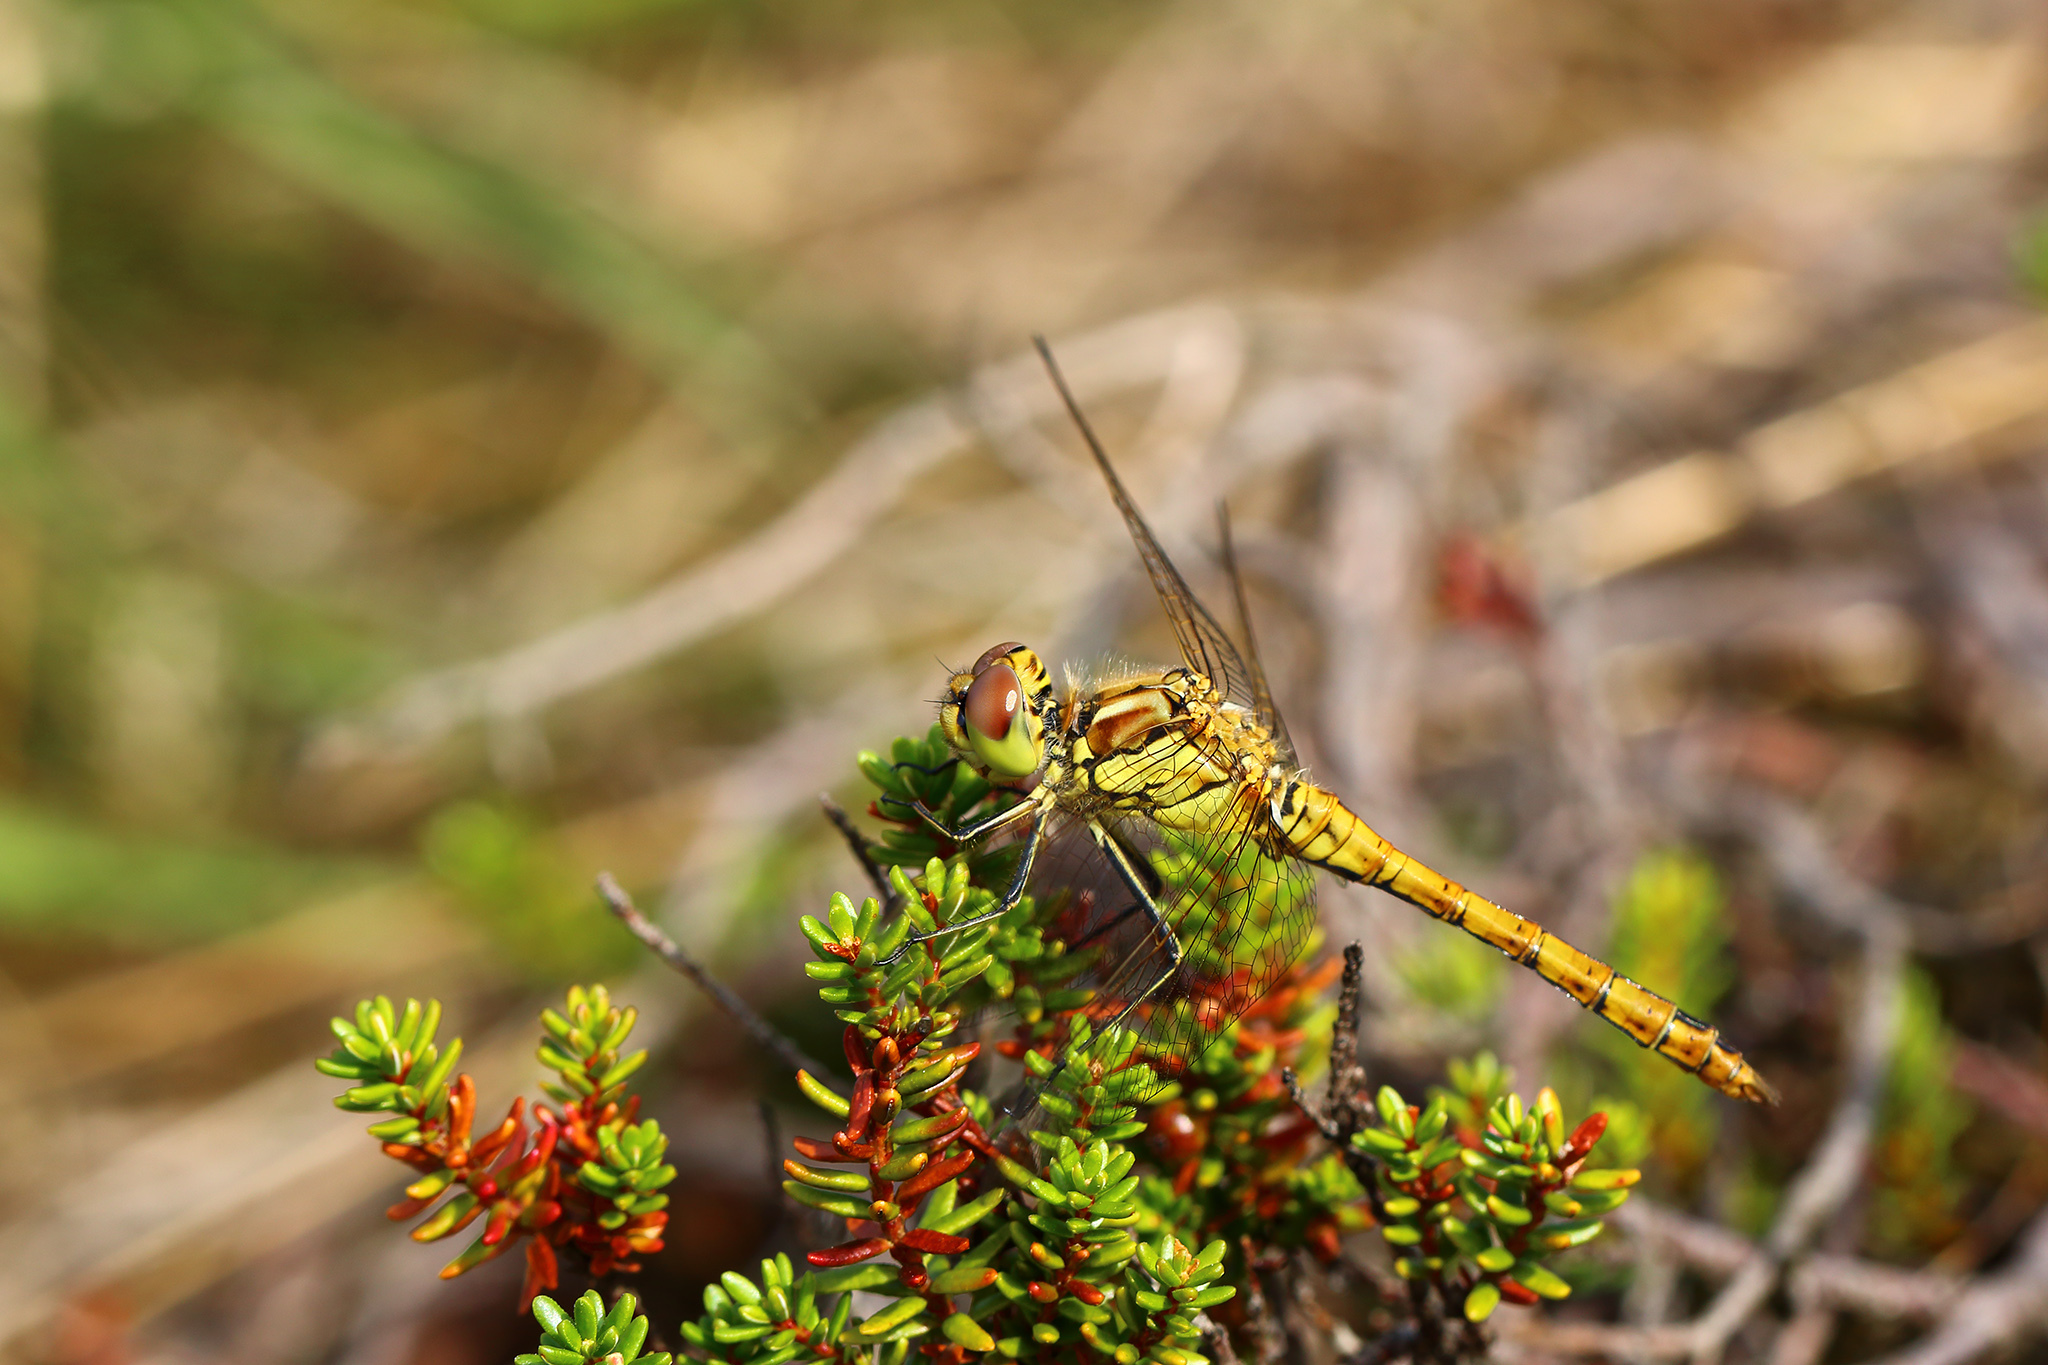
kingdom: Animalia
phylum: Arthropoda
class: Insecta
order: Odonata
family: Libellulidae
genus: Sympetrum
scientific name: Sympetrum vulgatum
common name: Vagrant darter
